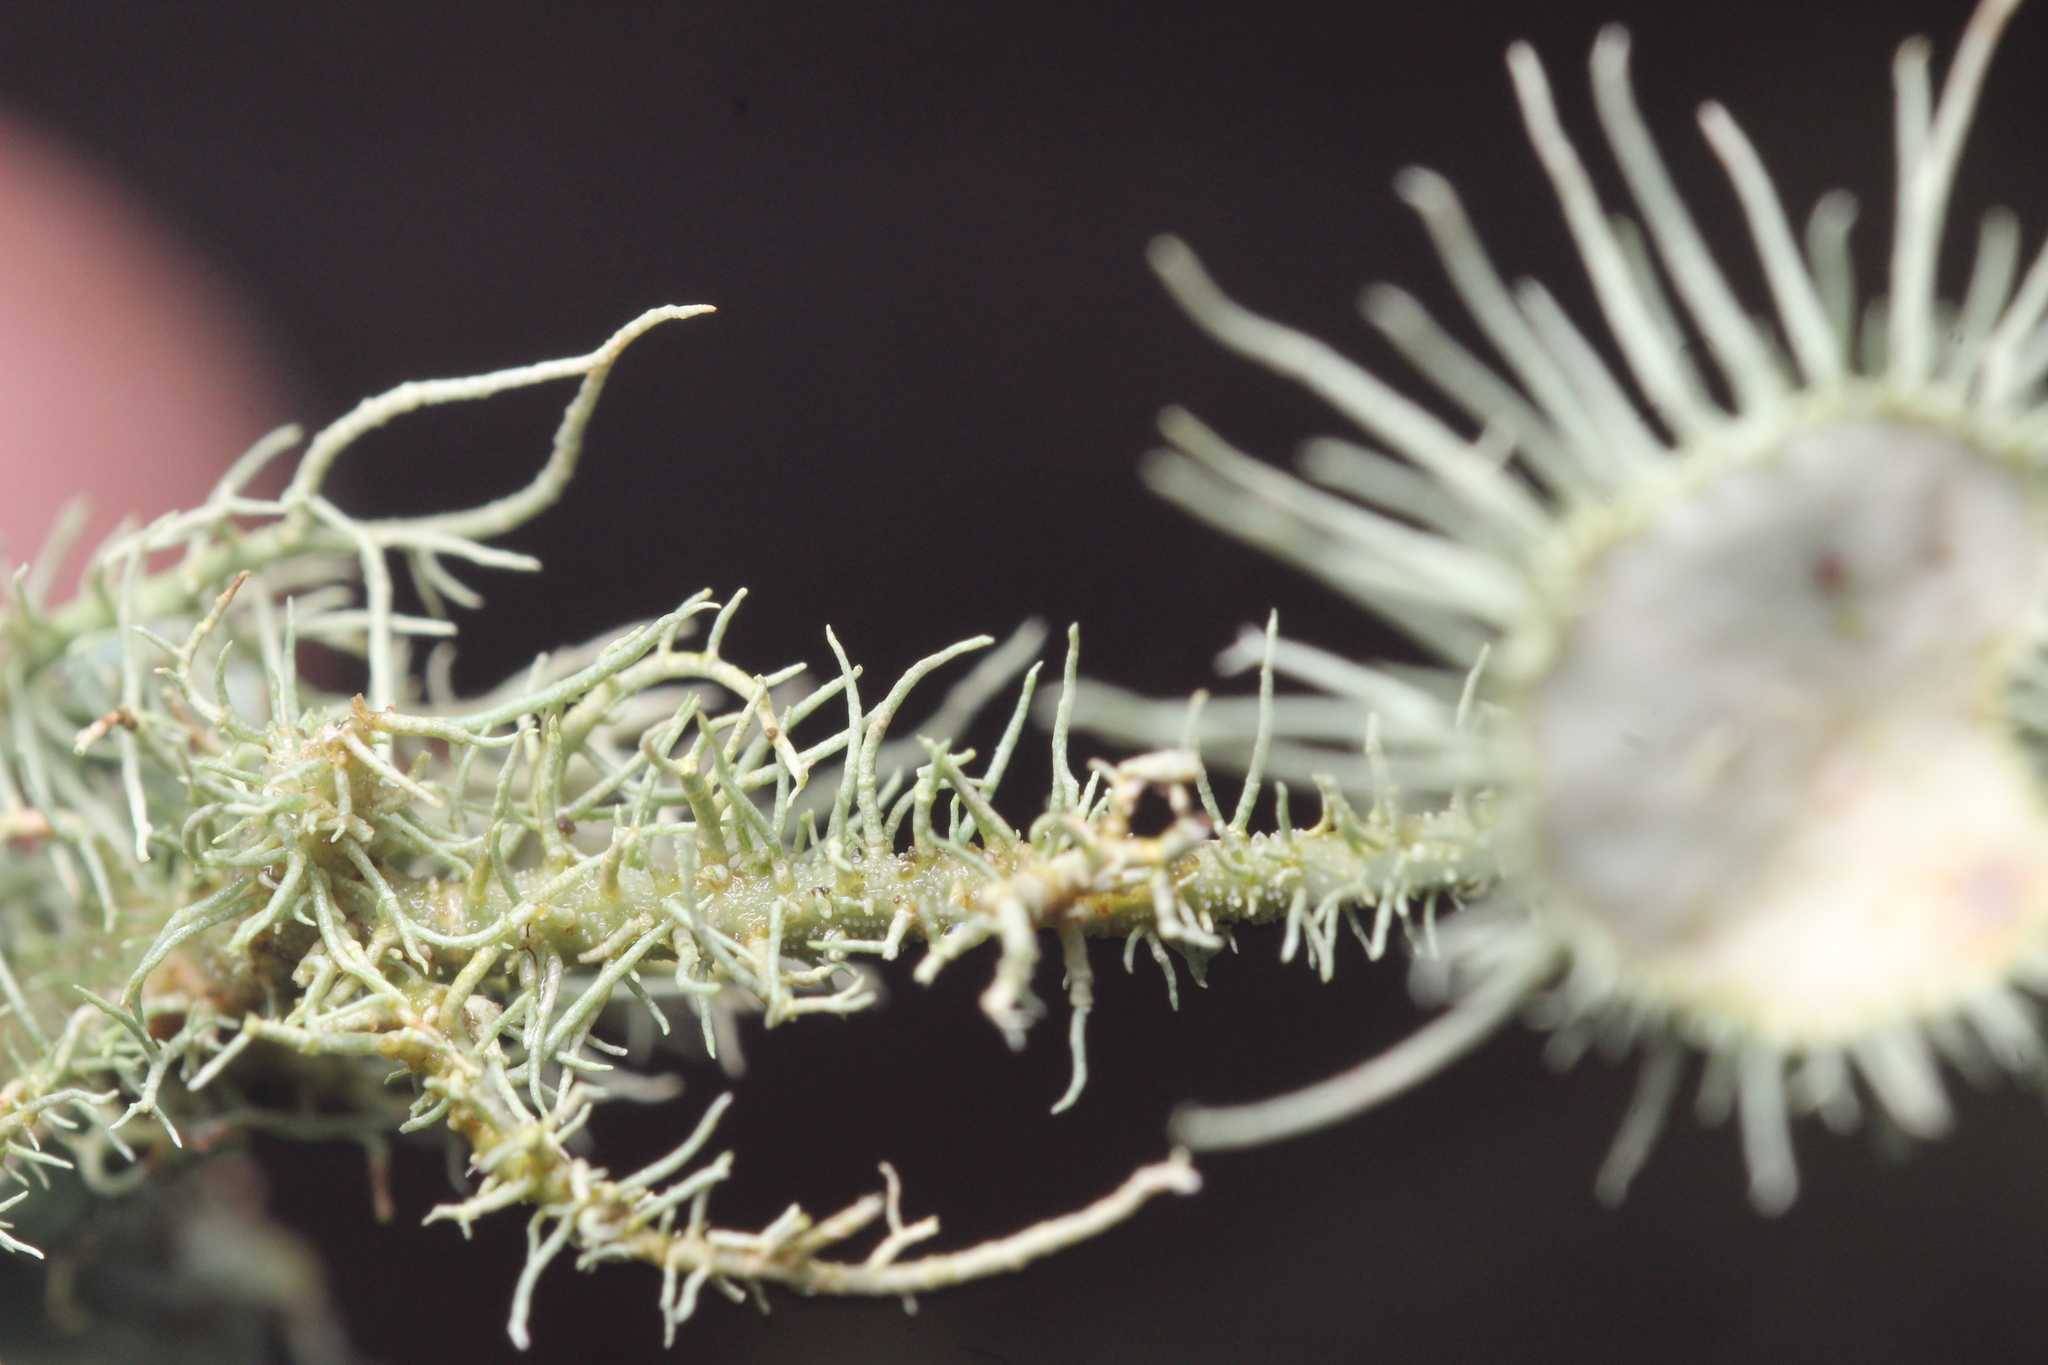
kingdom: Fungi
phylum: Ascomycota
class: Lecanoromycetes
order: Lecanorales
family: Parmeliaceae
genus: Usnea
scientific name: Usnea intermedia
